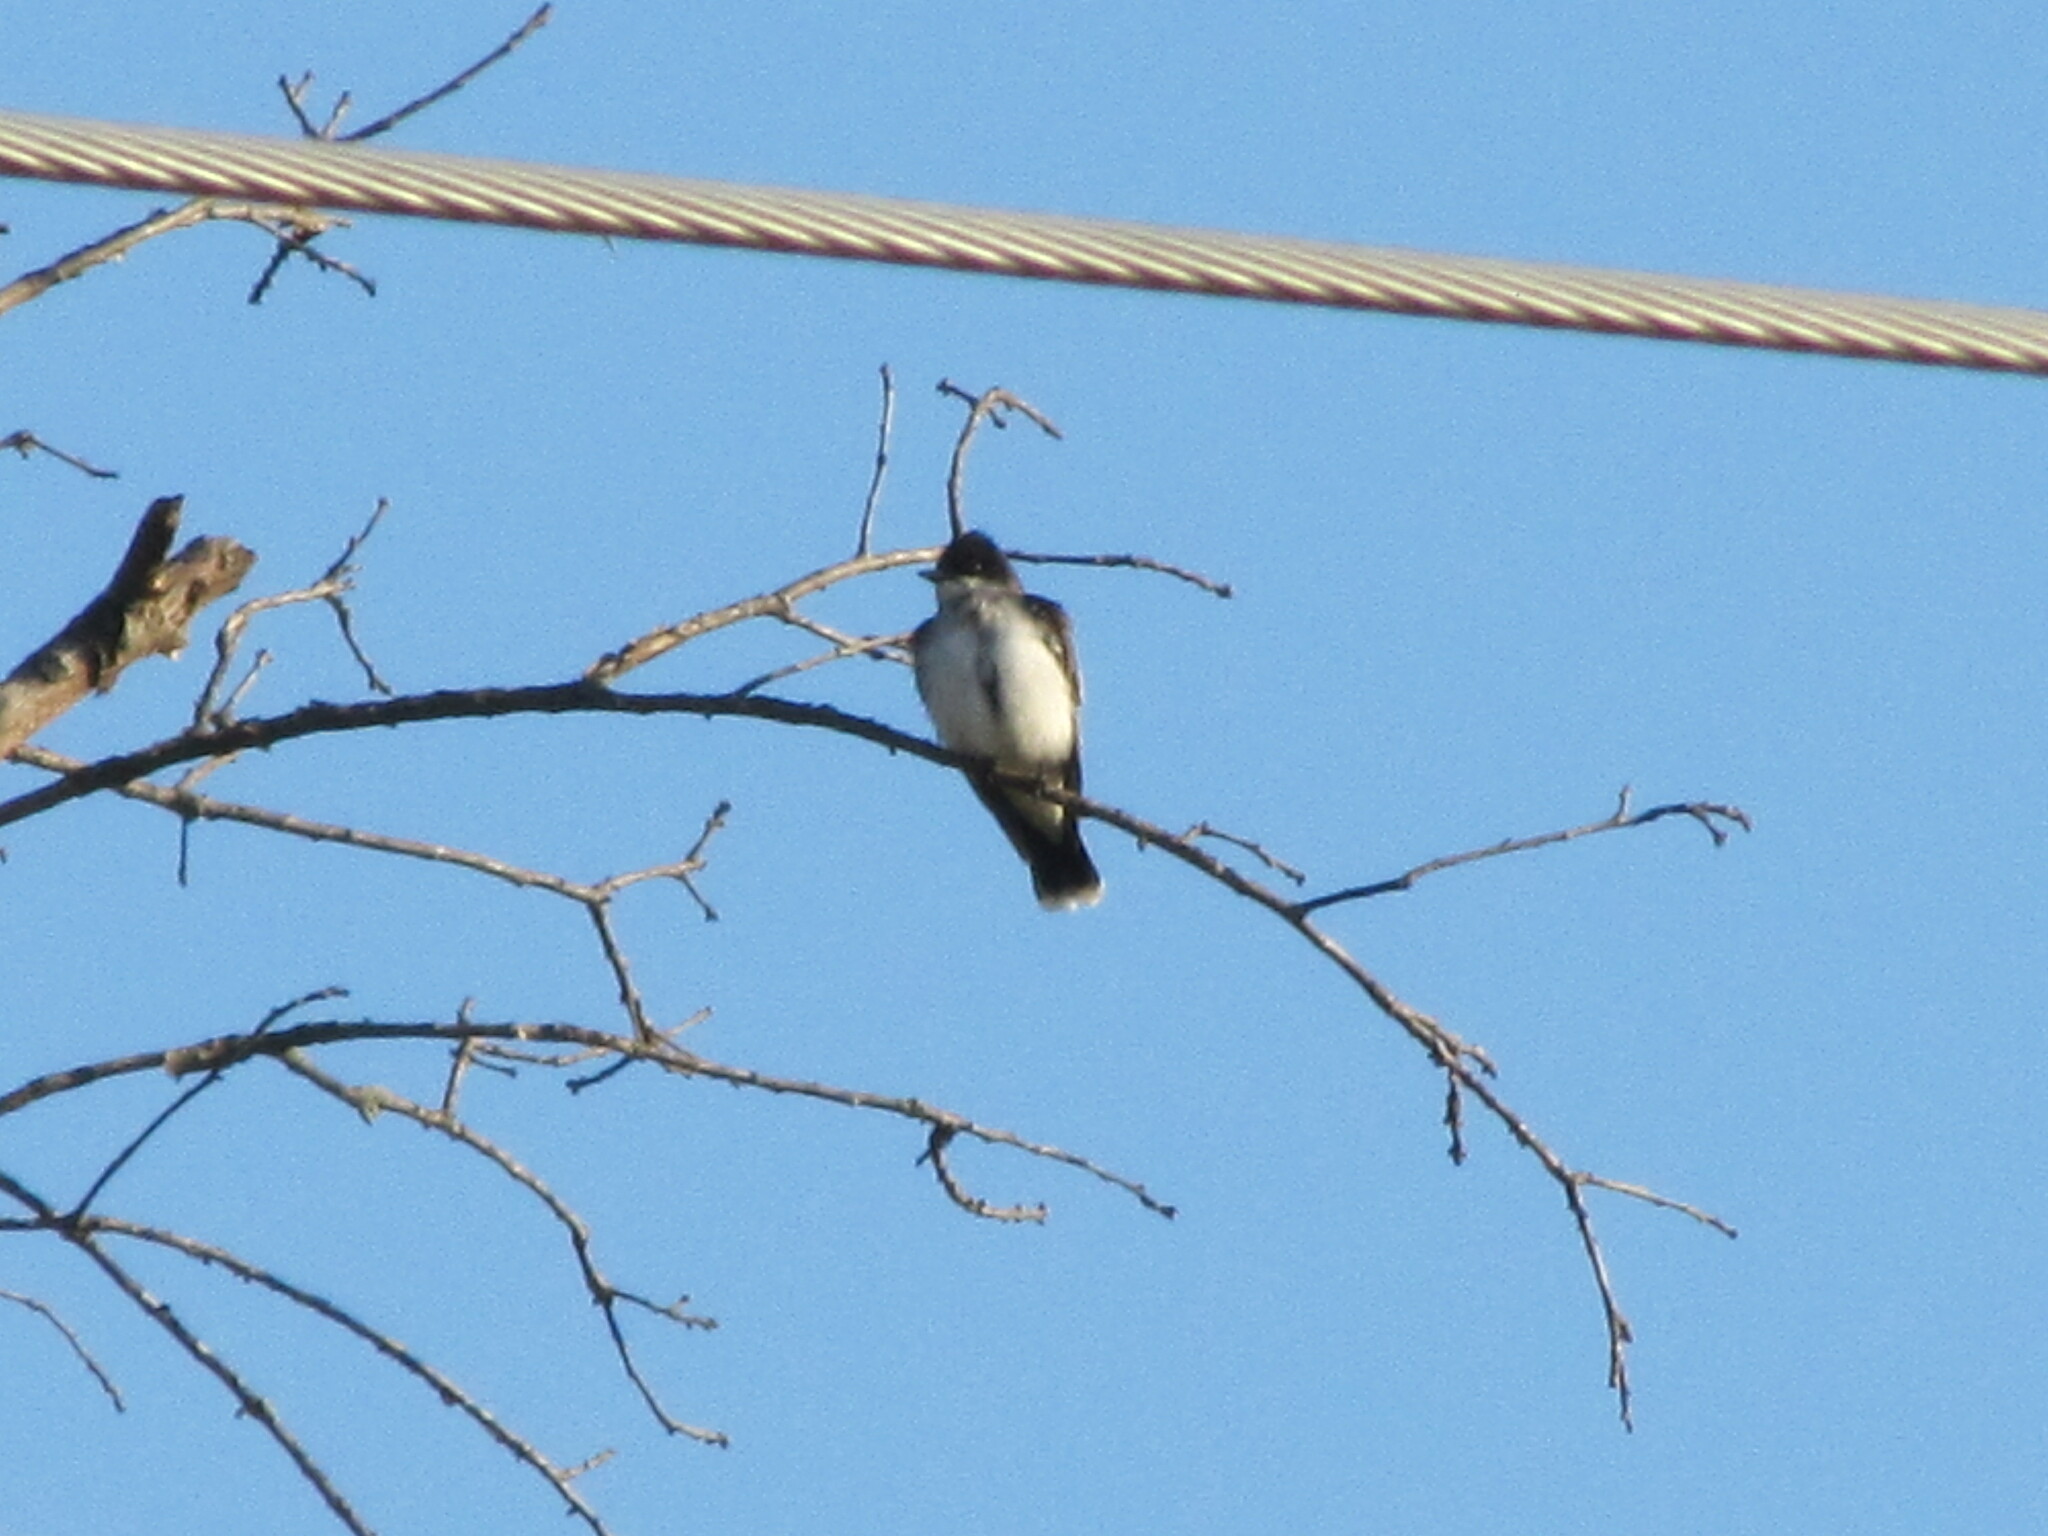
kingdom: Animalia
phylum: Chordata
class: Aves
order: Passeriformes
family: Tyrannidae
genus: Tyrannus
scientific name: Tyrannus tyrannus
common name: Eastern kingbird
